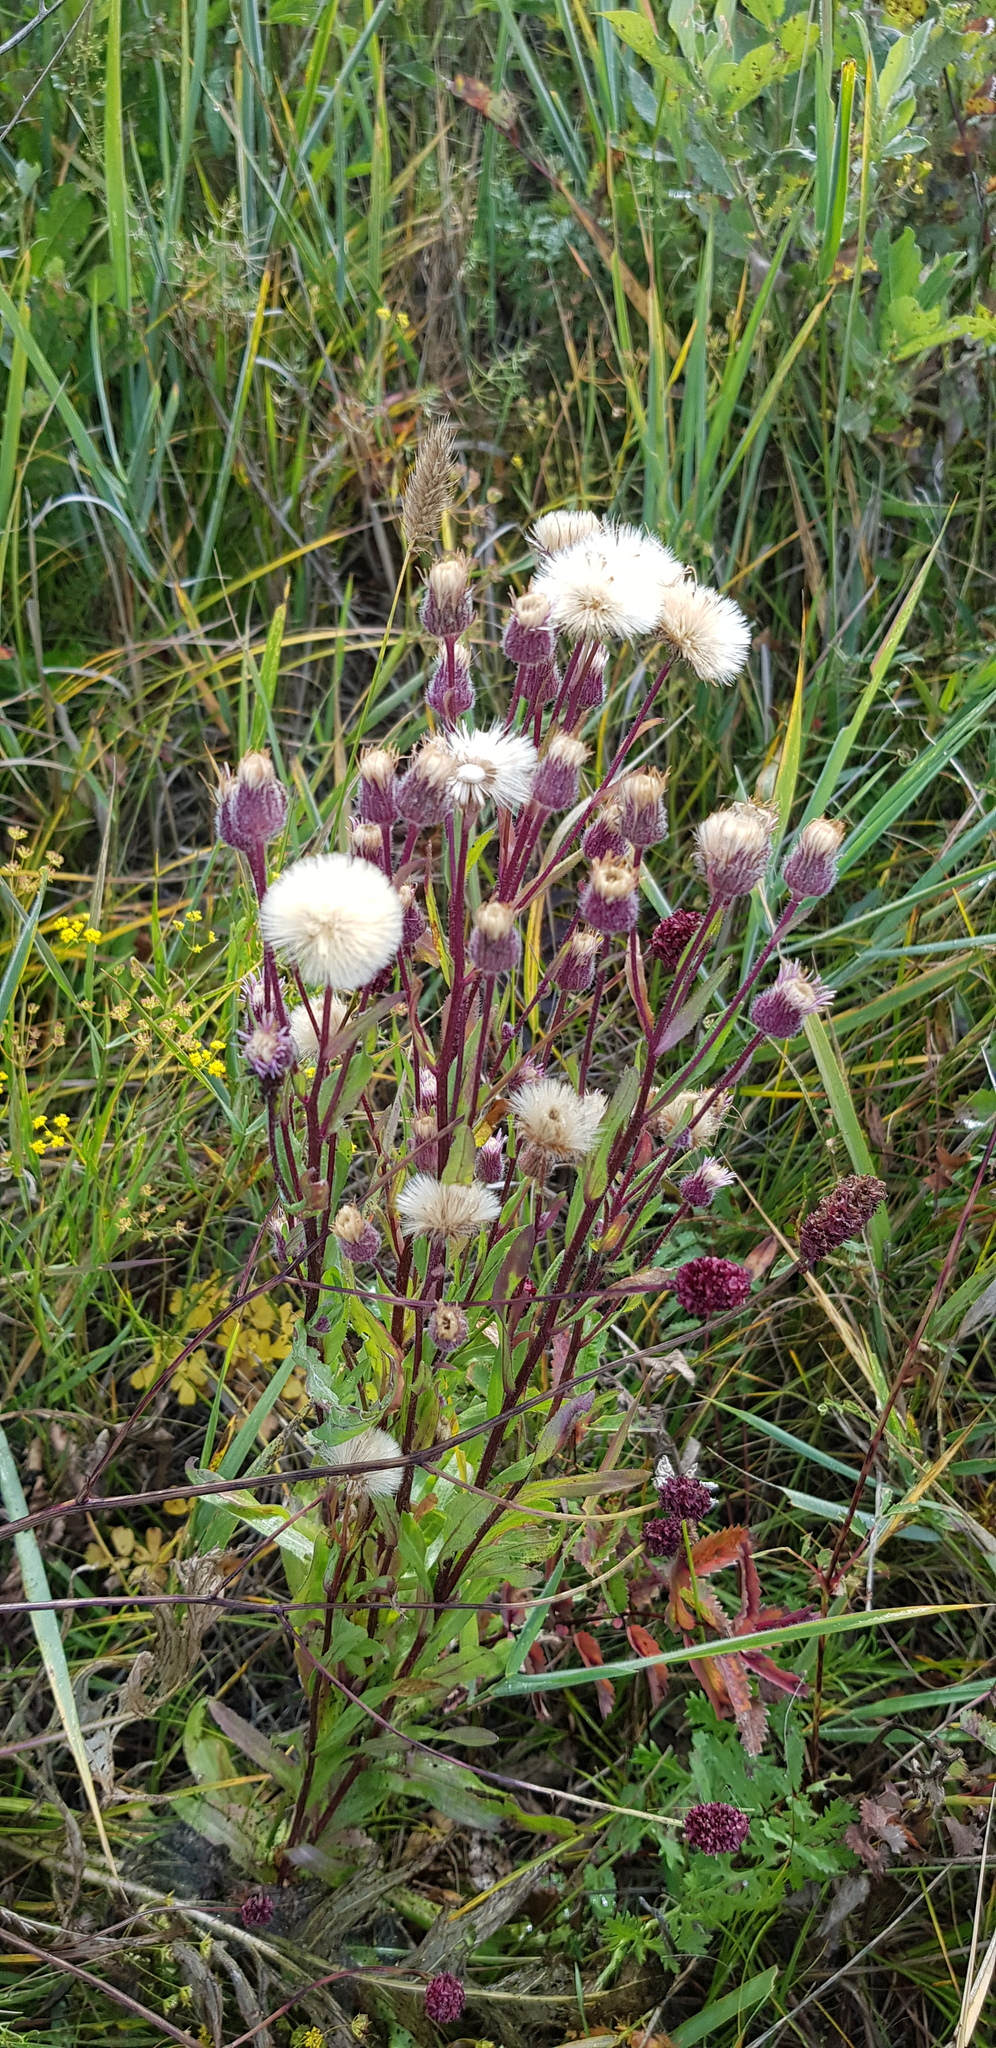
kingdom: Plantae
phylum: Tracheophyta
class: Magnoliopsida
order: Asterales
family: Asteraceae
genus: Erigeron
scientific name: Erigeron acris
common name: Blue fleabane
